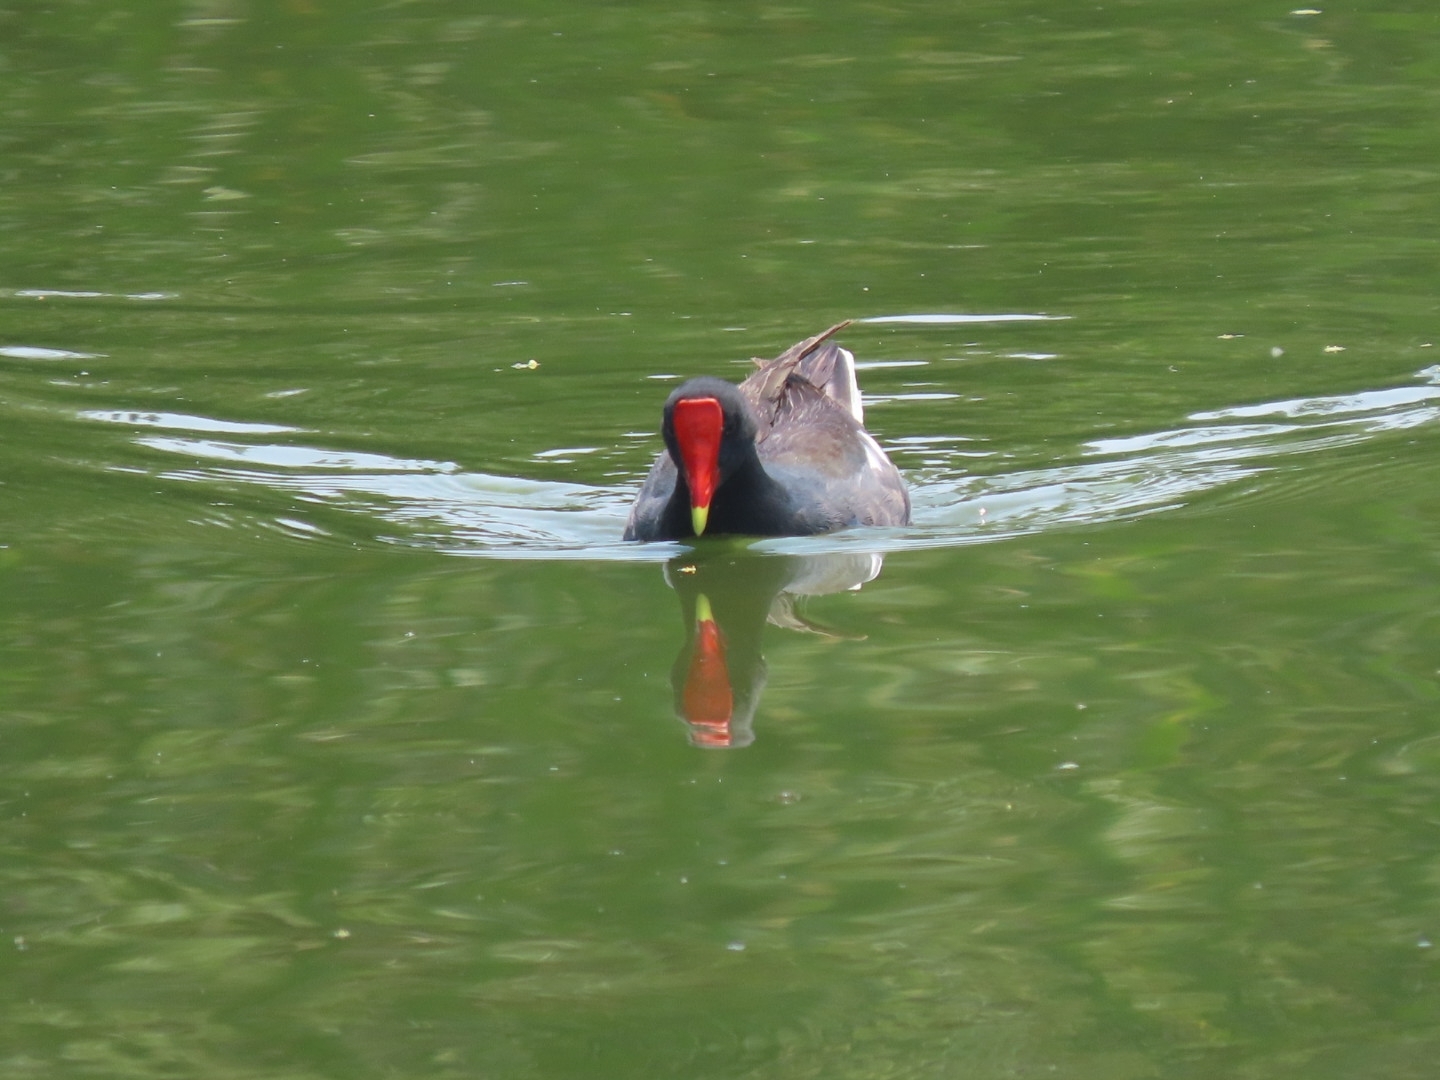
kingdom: Animalia
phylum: Chordata
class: Aves
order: Gruiformes
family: Rallidae
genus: Gallinula
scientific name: Gallinula chloropus
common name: Common moorhen
